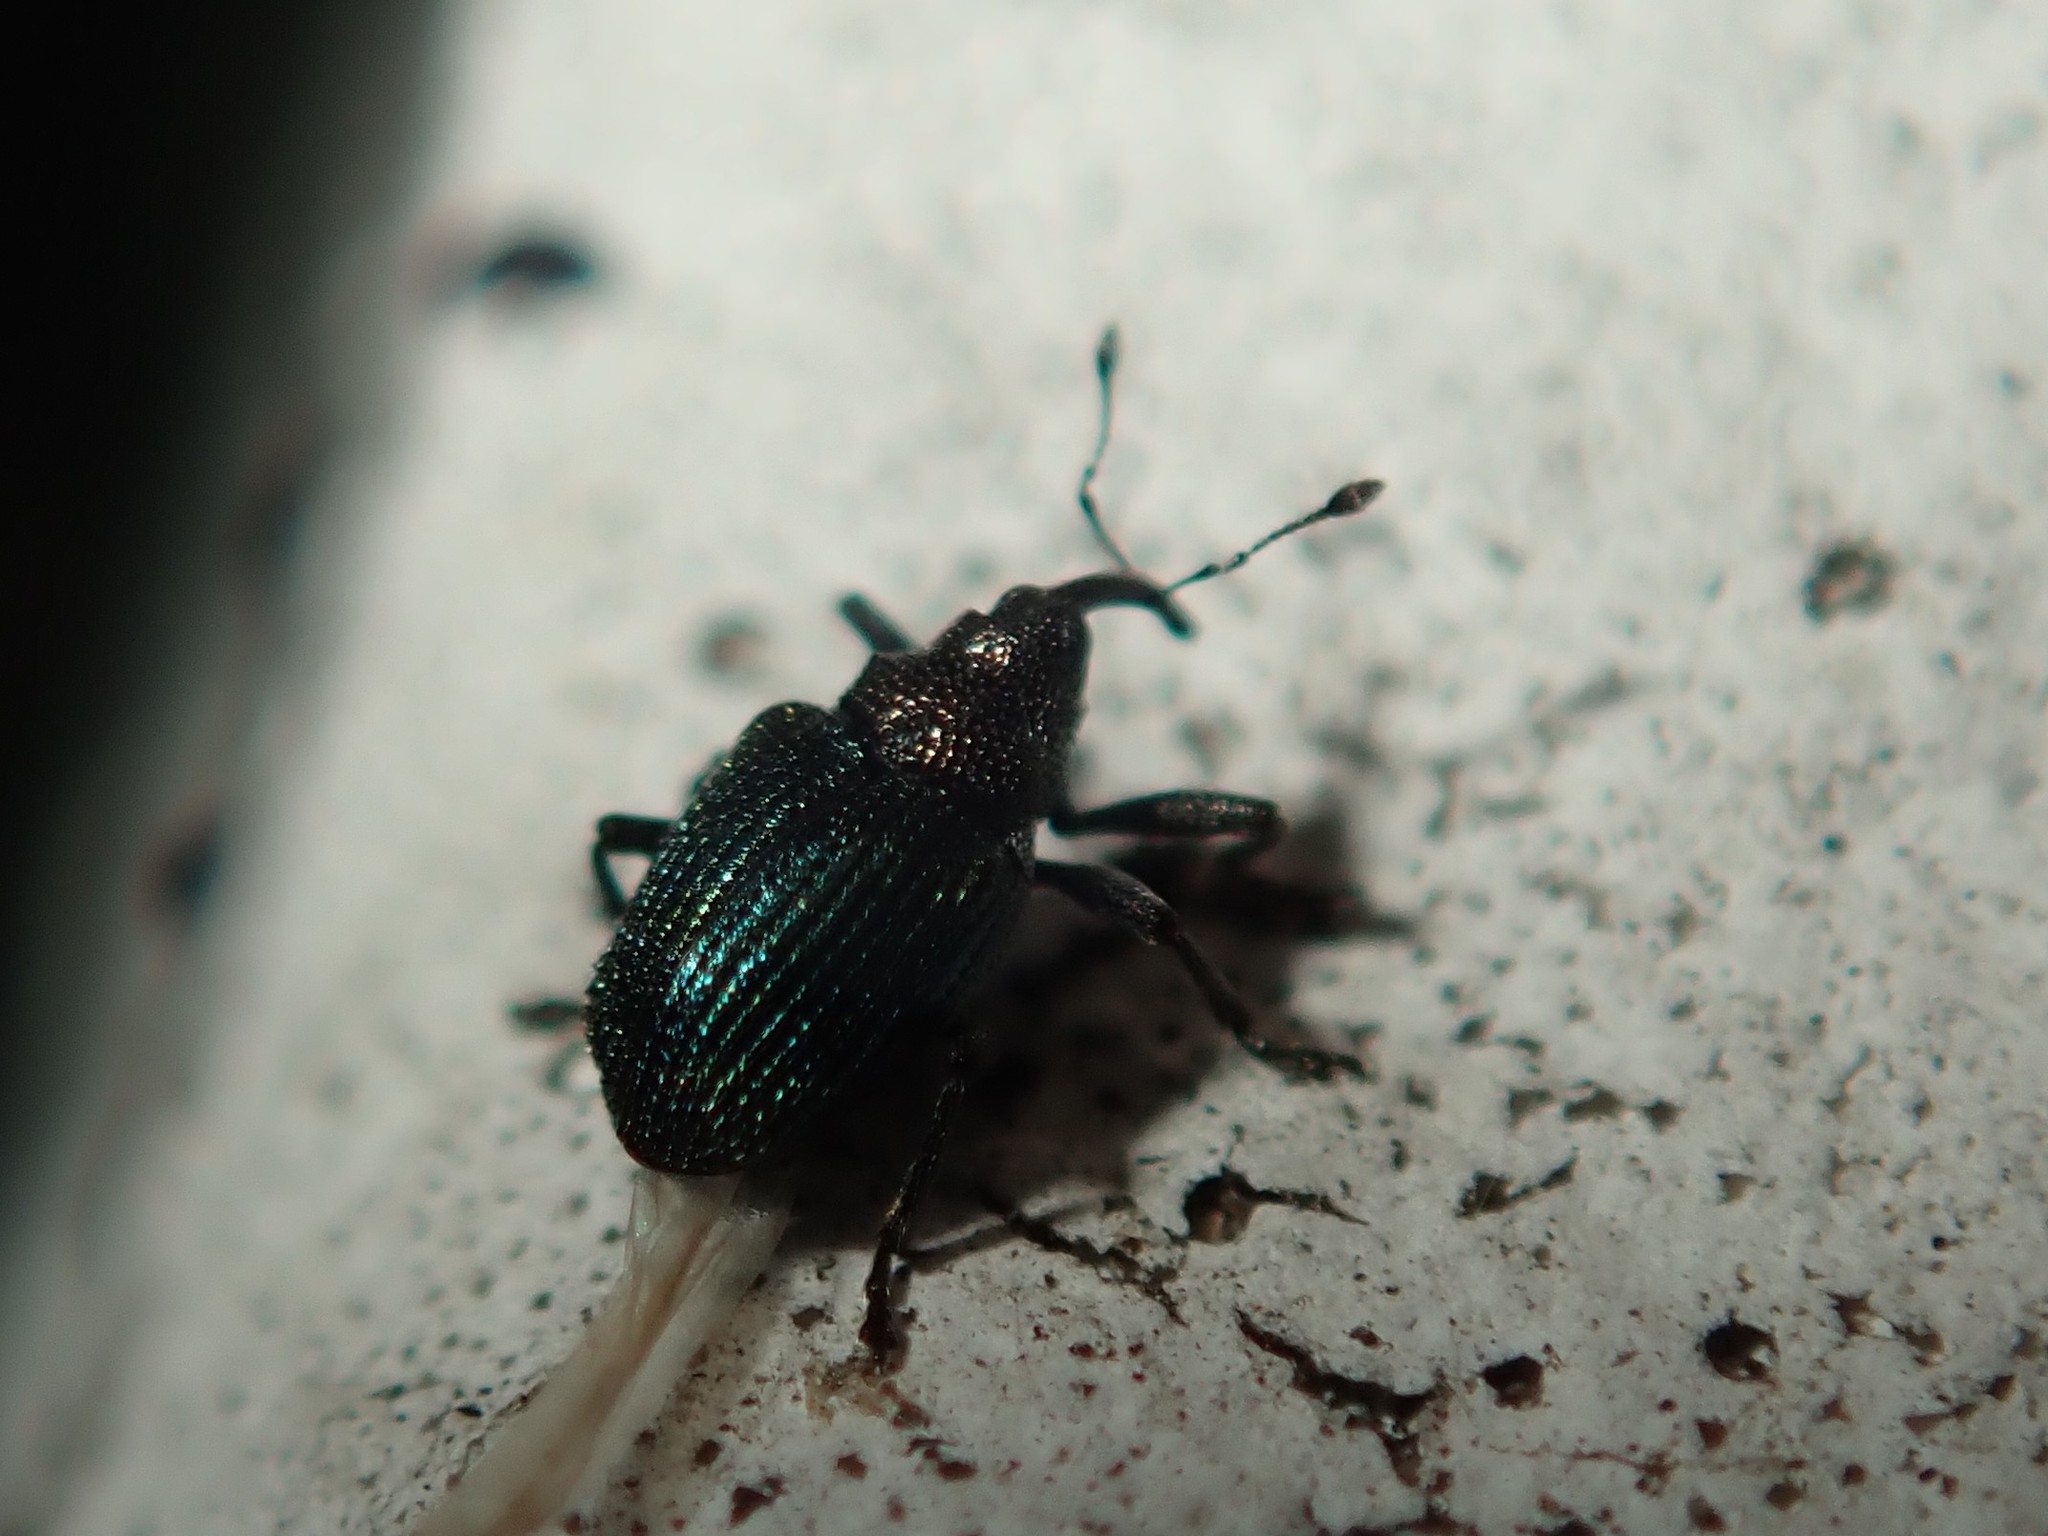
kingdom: Animalia
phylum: Arthropoda
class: Insecta
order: Coleoptera
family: Curculionidae
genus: Ceutorhynchus
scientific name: Ceutorhynchus erysimi
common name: Weevil
